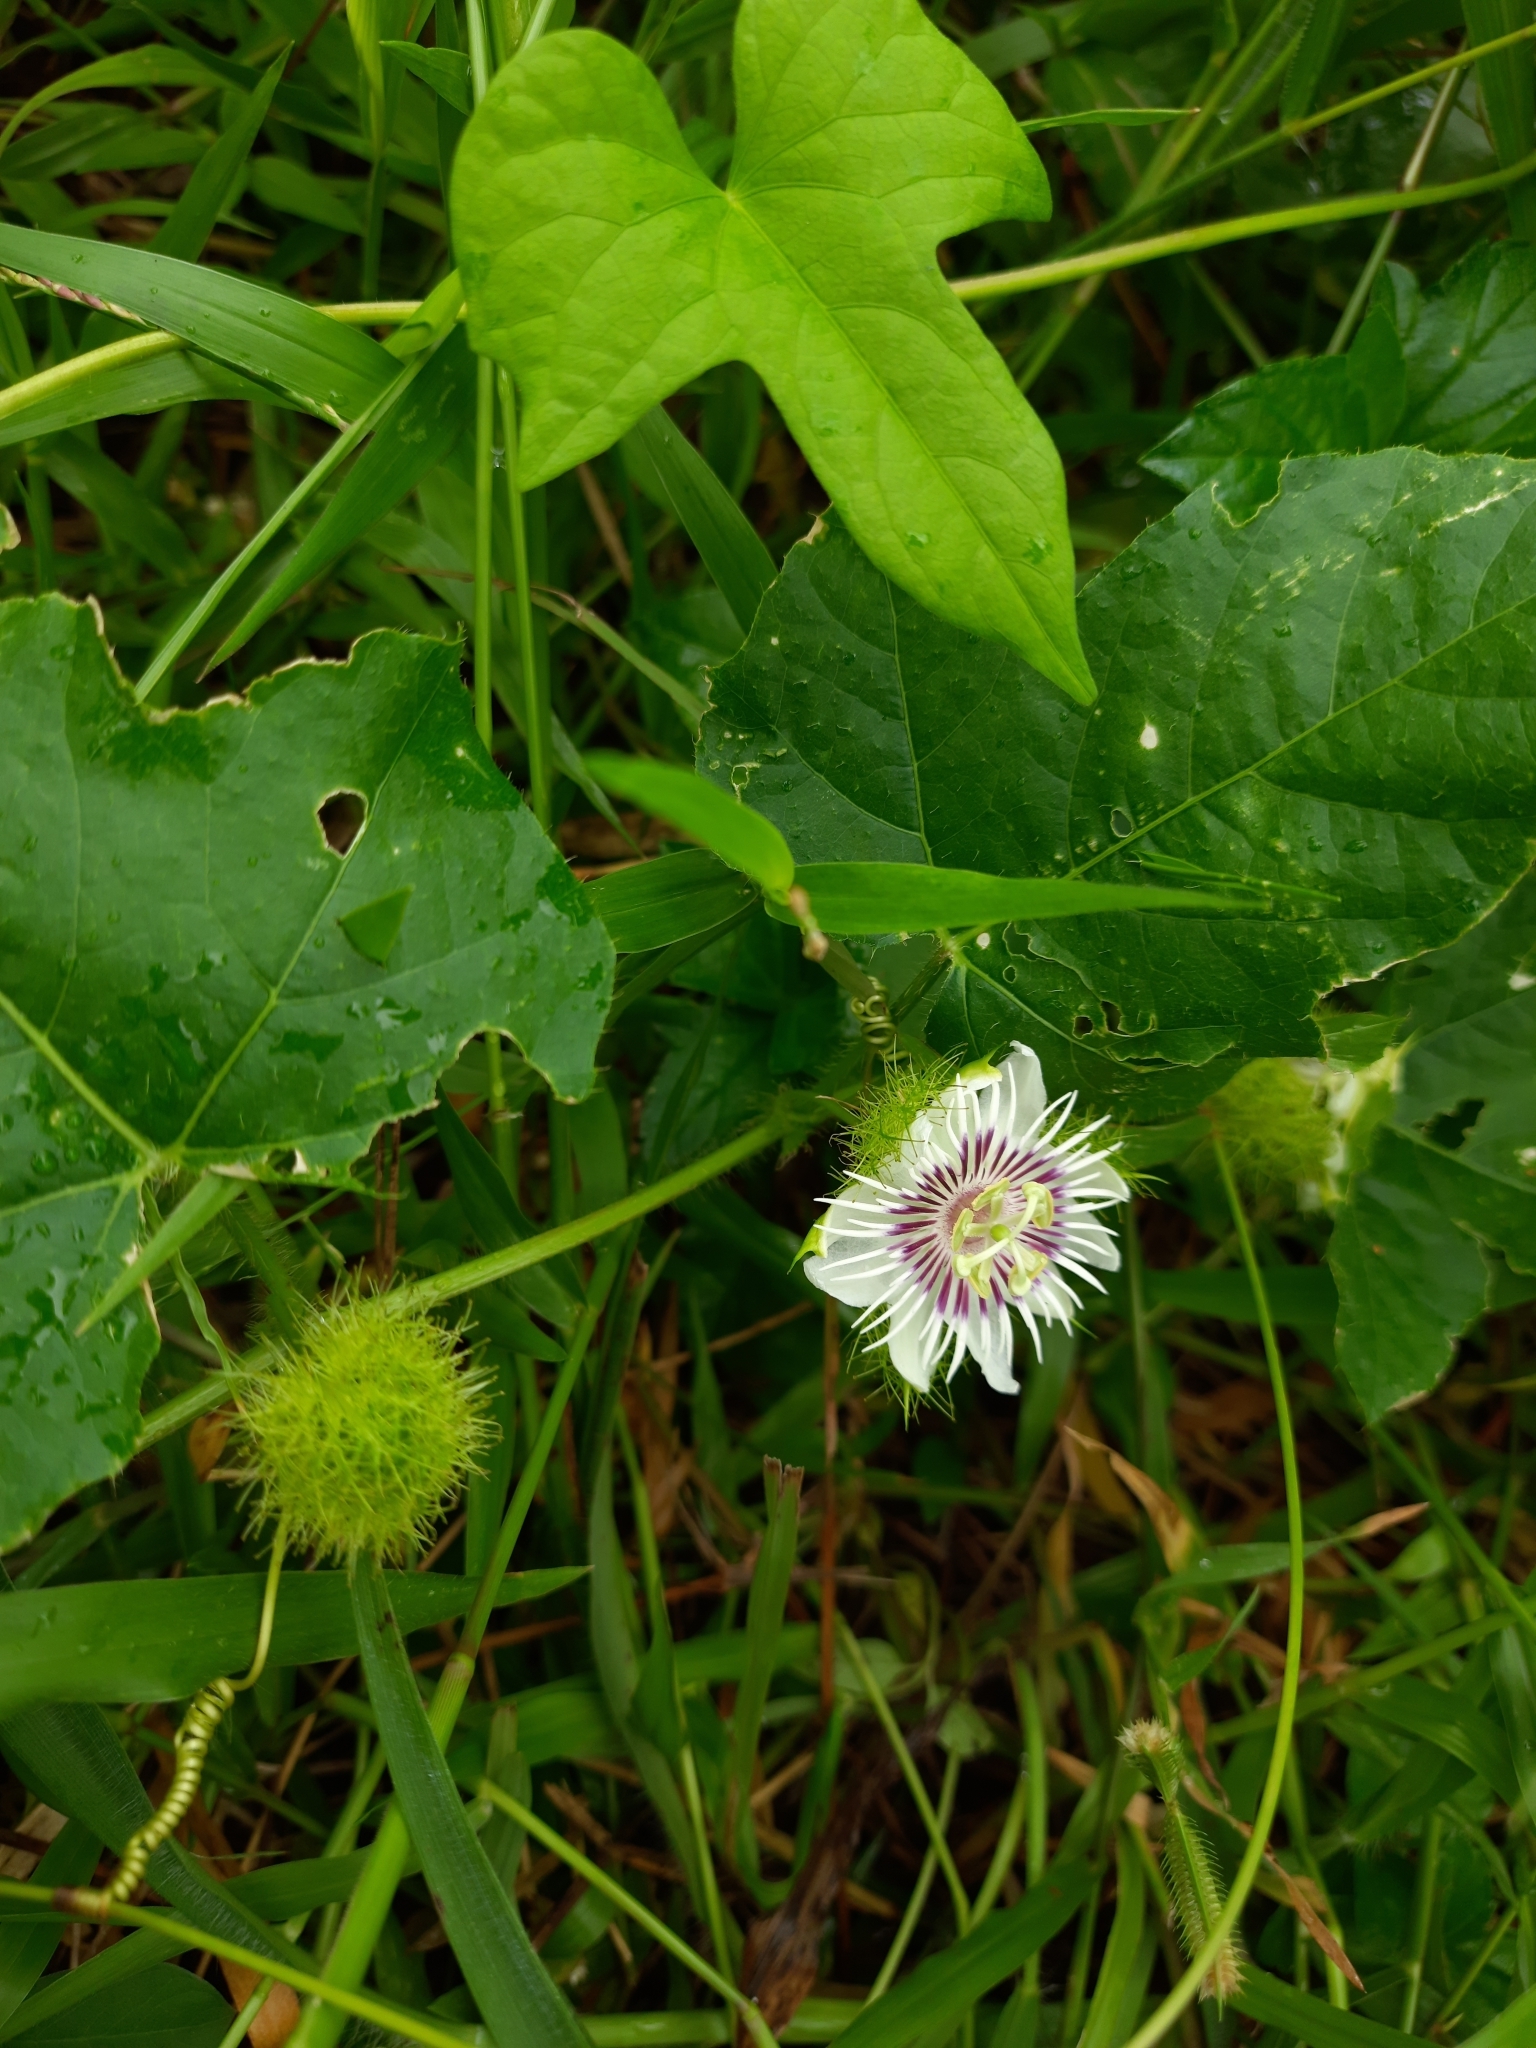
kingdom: Plantae
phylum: Tracheophyta
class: Magnoliopsida
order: Malpighiales
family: Passifloraceae
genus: Passiflora
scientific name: Passiflora foetida
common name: Fetid passionflower
